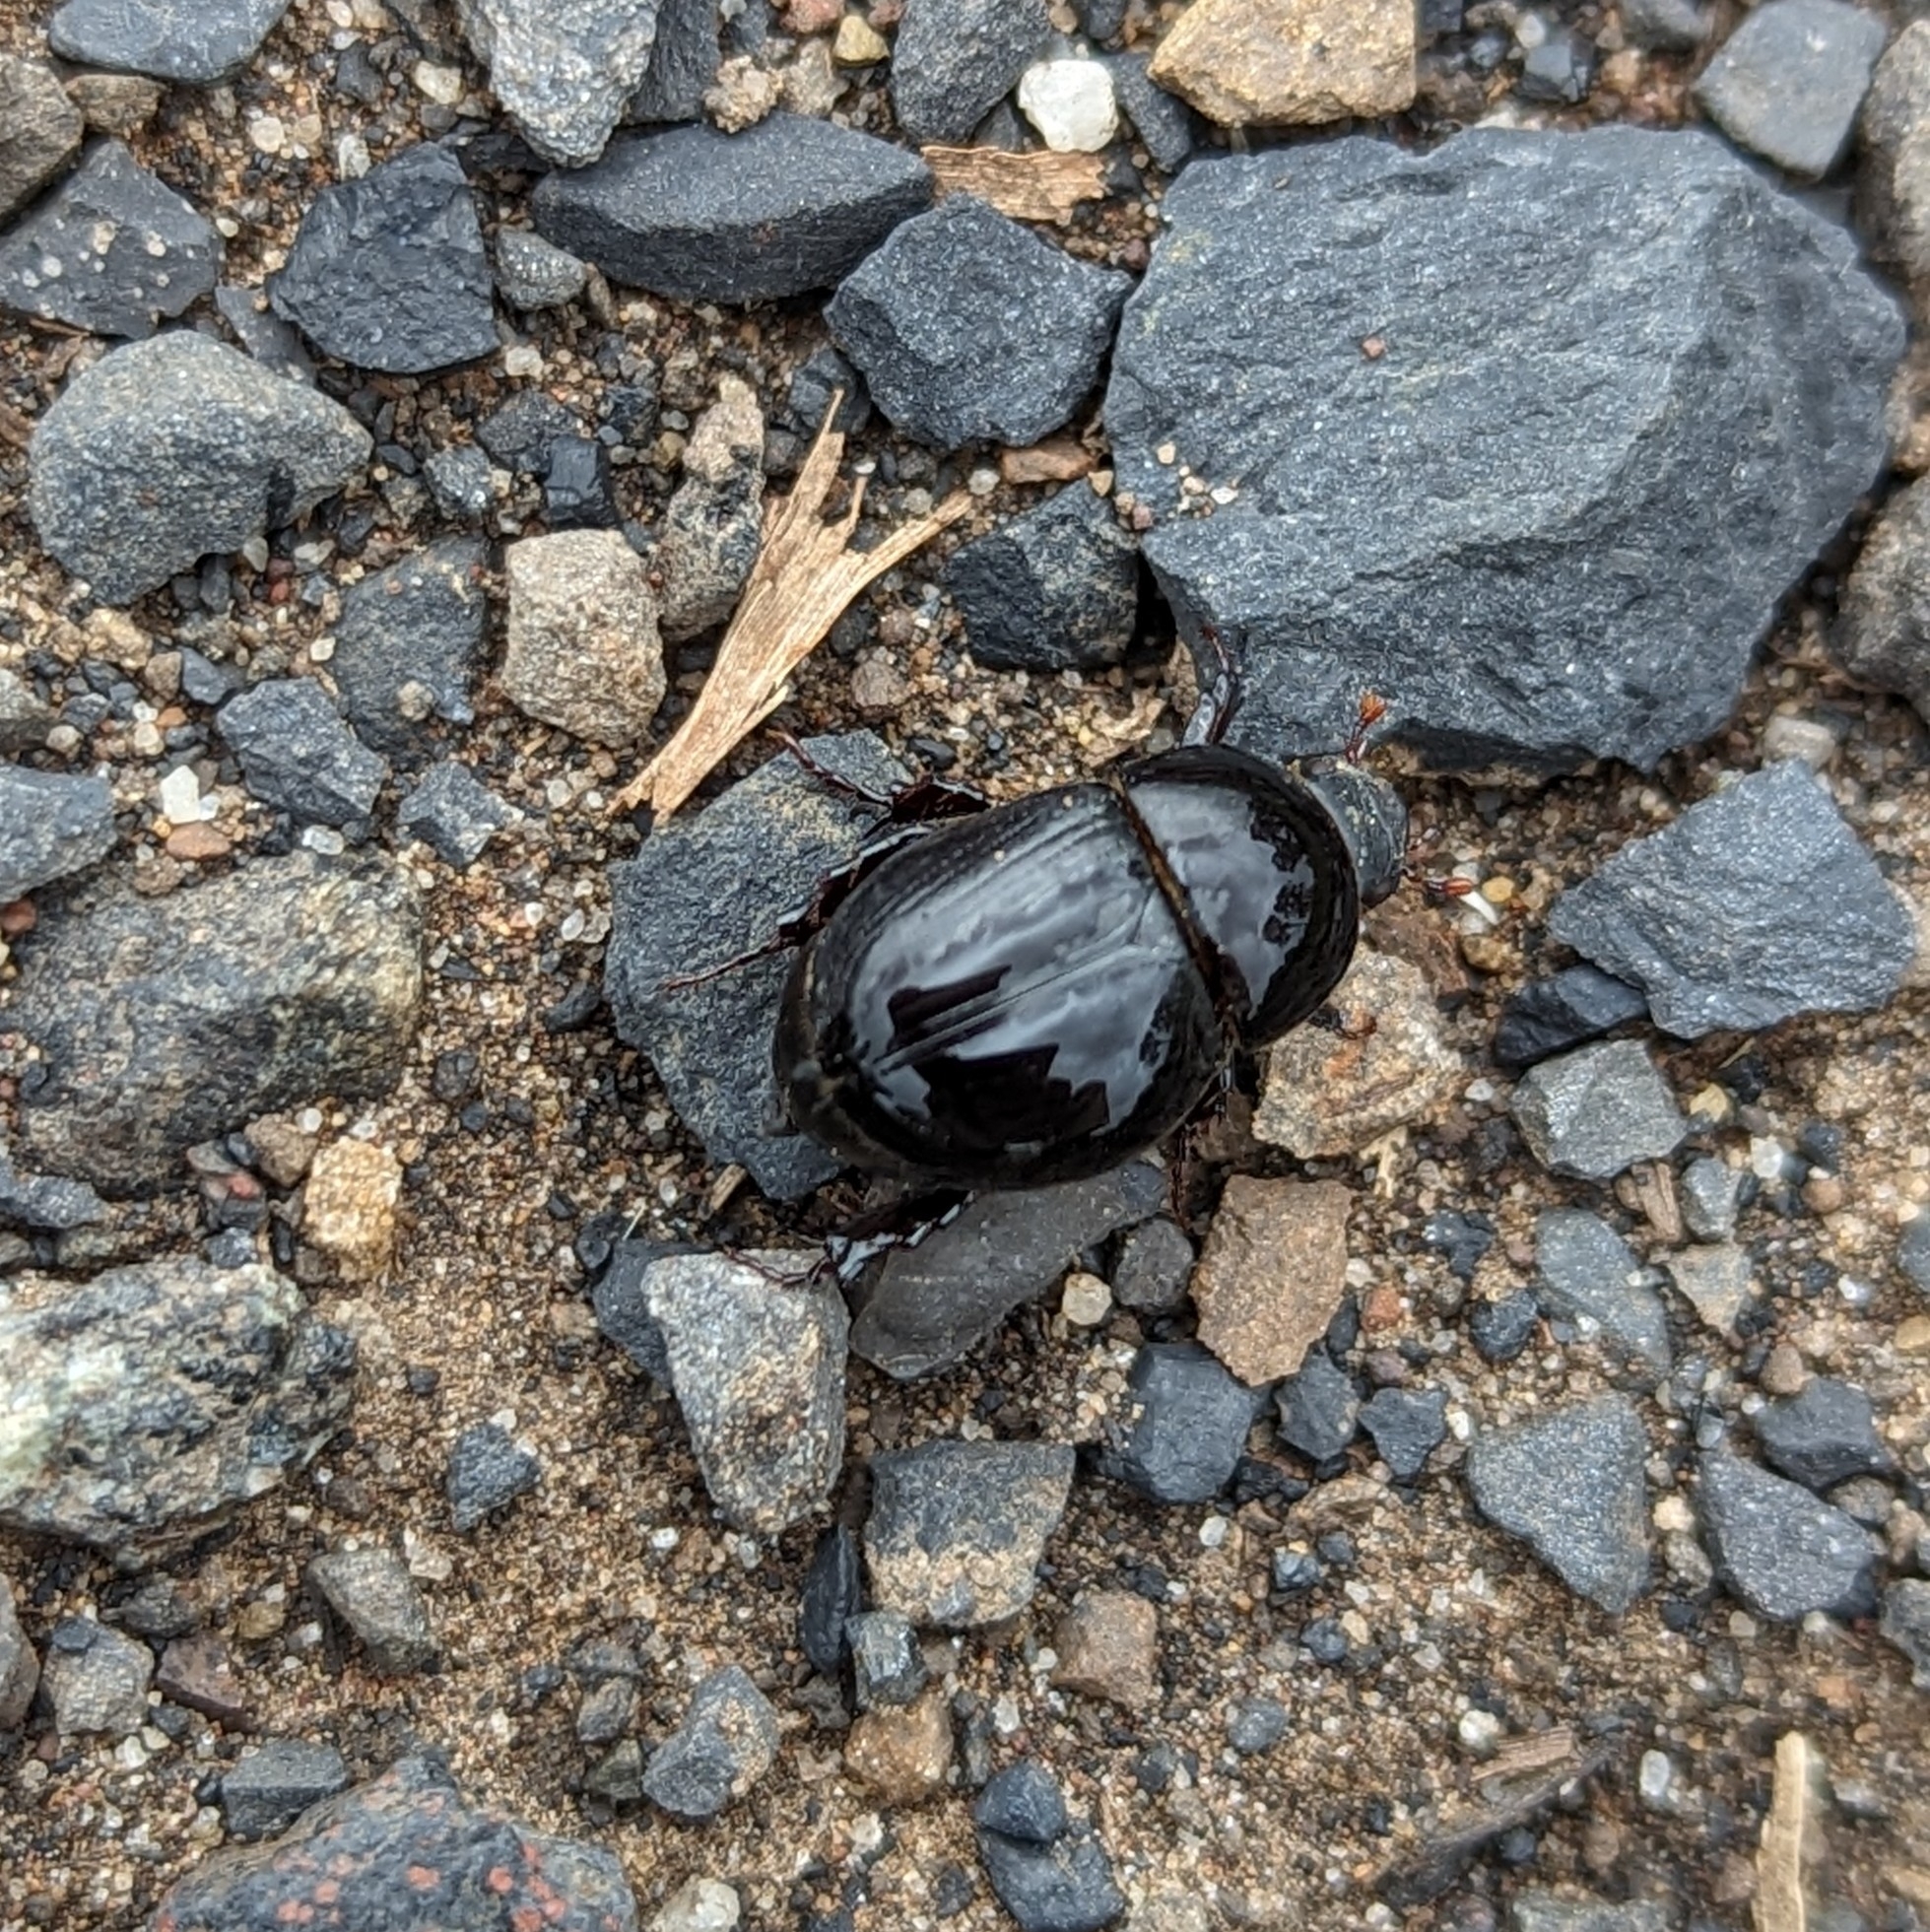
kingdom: Animalia
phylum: Arthropoda
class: Insecta
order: Coleoptera
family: Scarabaeidae
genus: Heteronychus
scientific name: Heteronychus arator
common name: African black beetle
